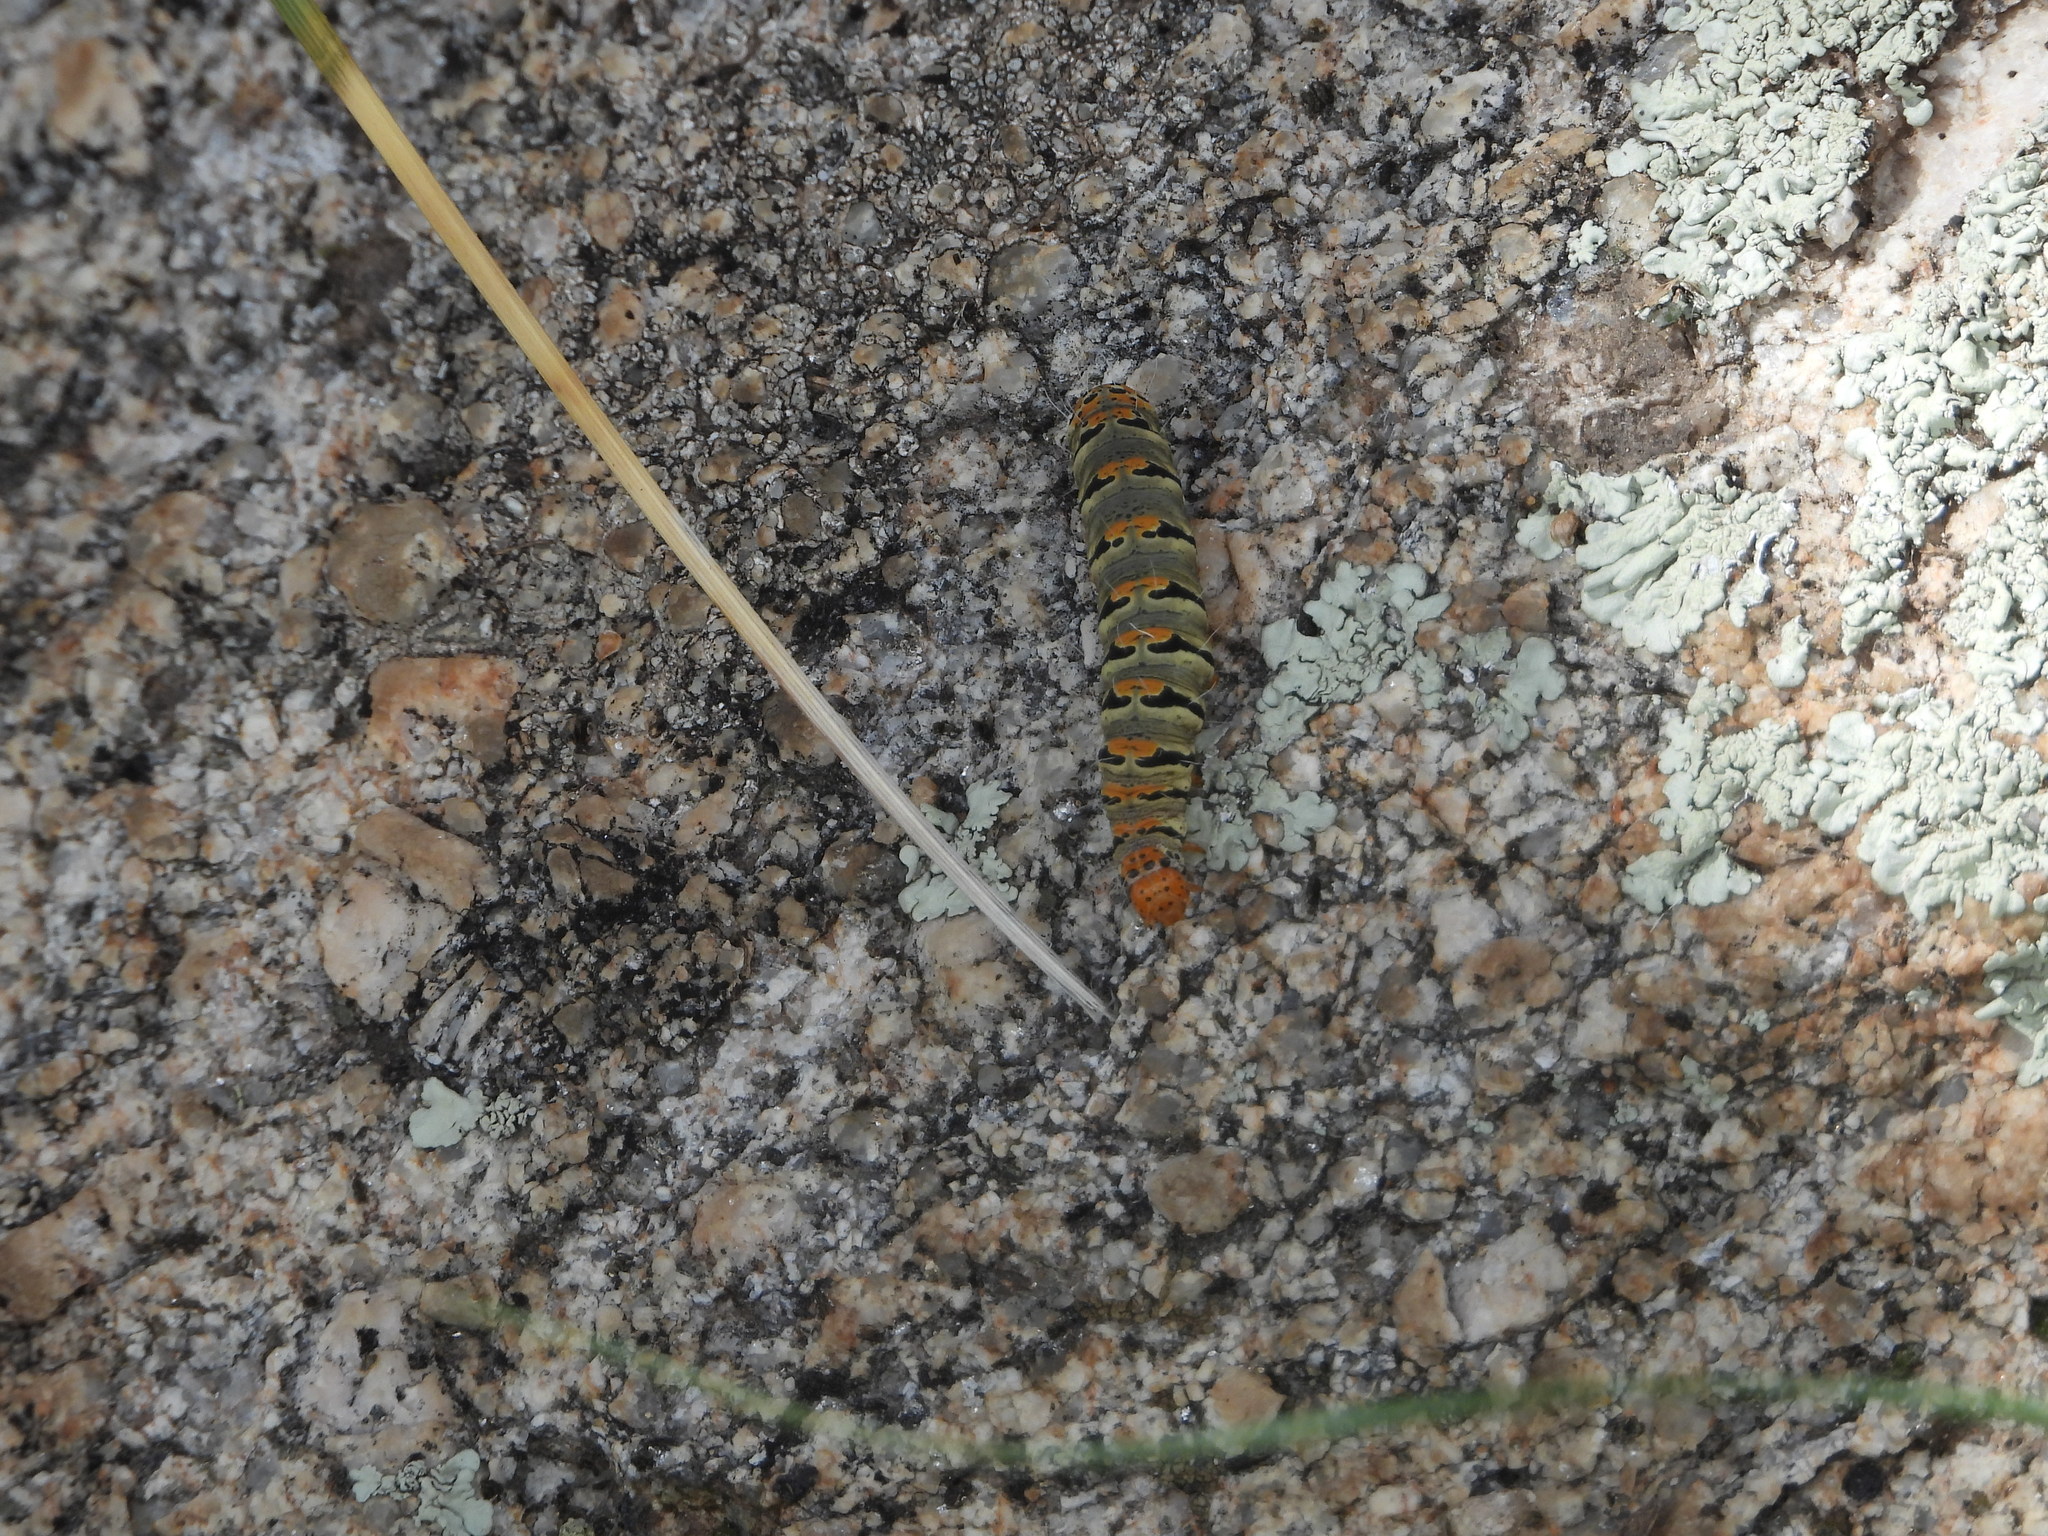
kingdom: Animalia
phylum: Arthropoda
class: Insecta
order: Lepidoptera
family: Noctuidae
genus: Euscirrhopterus
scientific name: Euscirrhopterus gloveri
